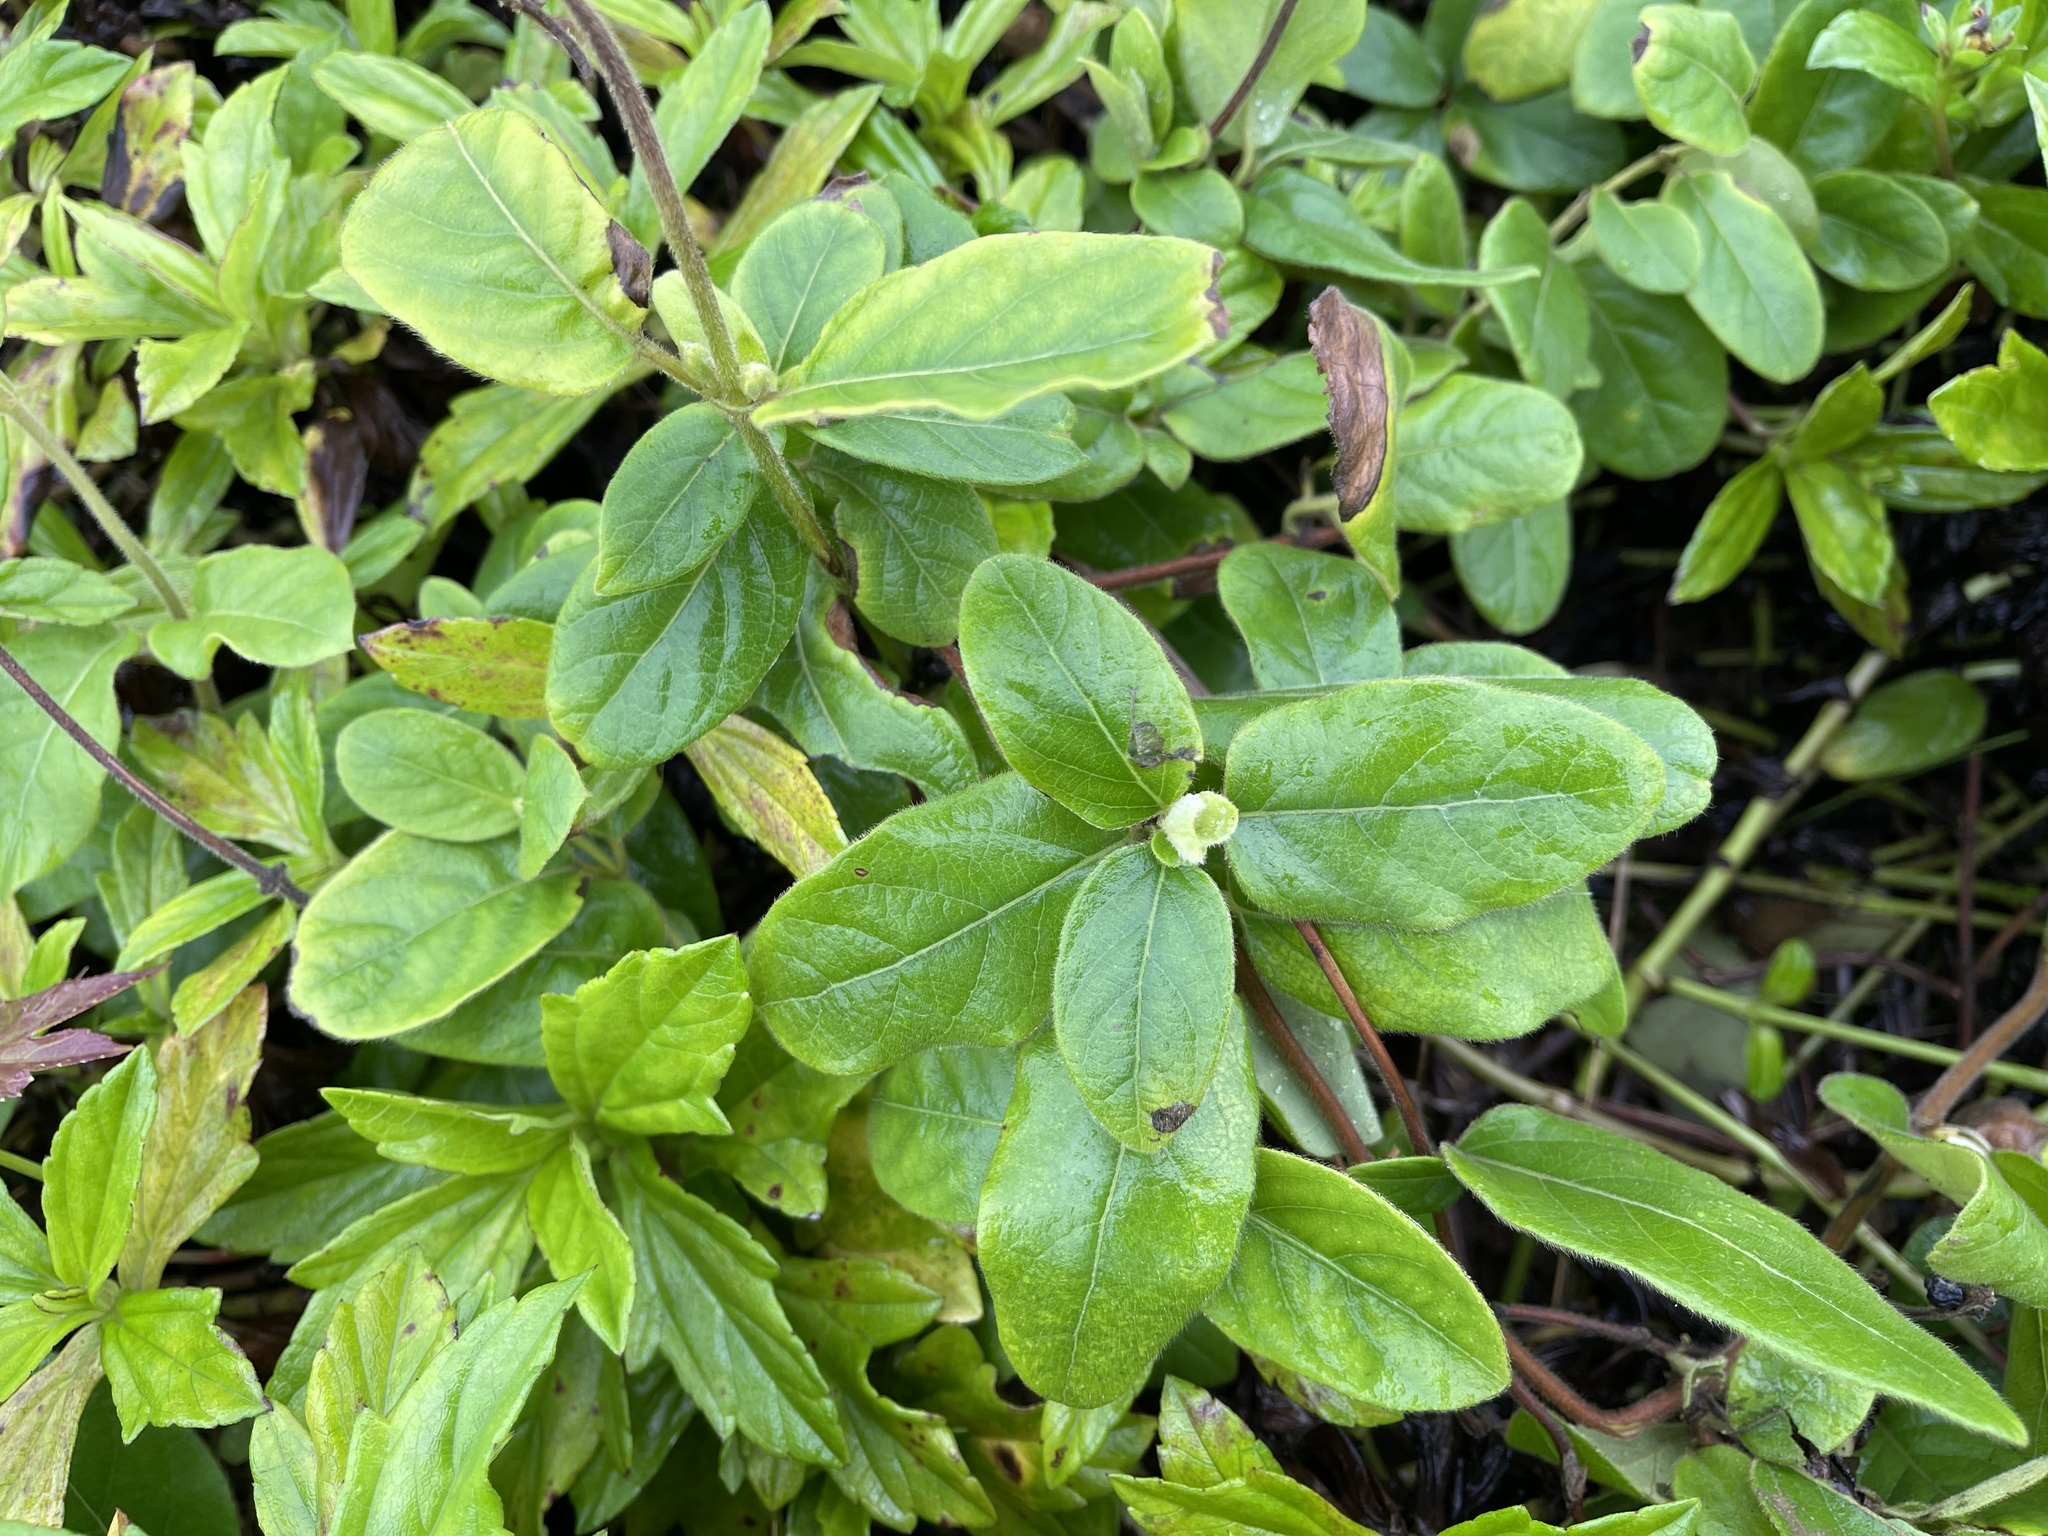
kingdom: Plantae
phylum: Tracheophyta
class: Magnoliopsida
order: Dipsacales
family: Caprifoliaceae
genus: Lonicera
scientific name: Lonicera japonica
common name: Japanese honeysuckle
